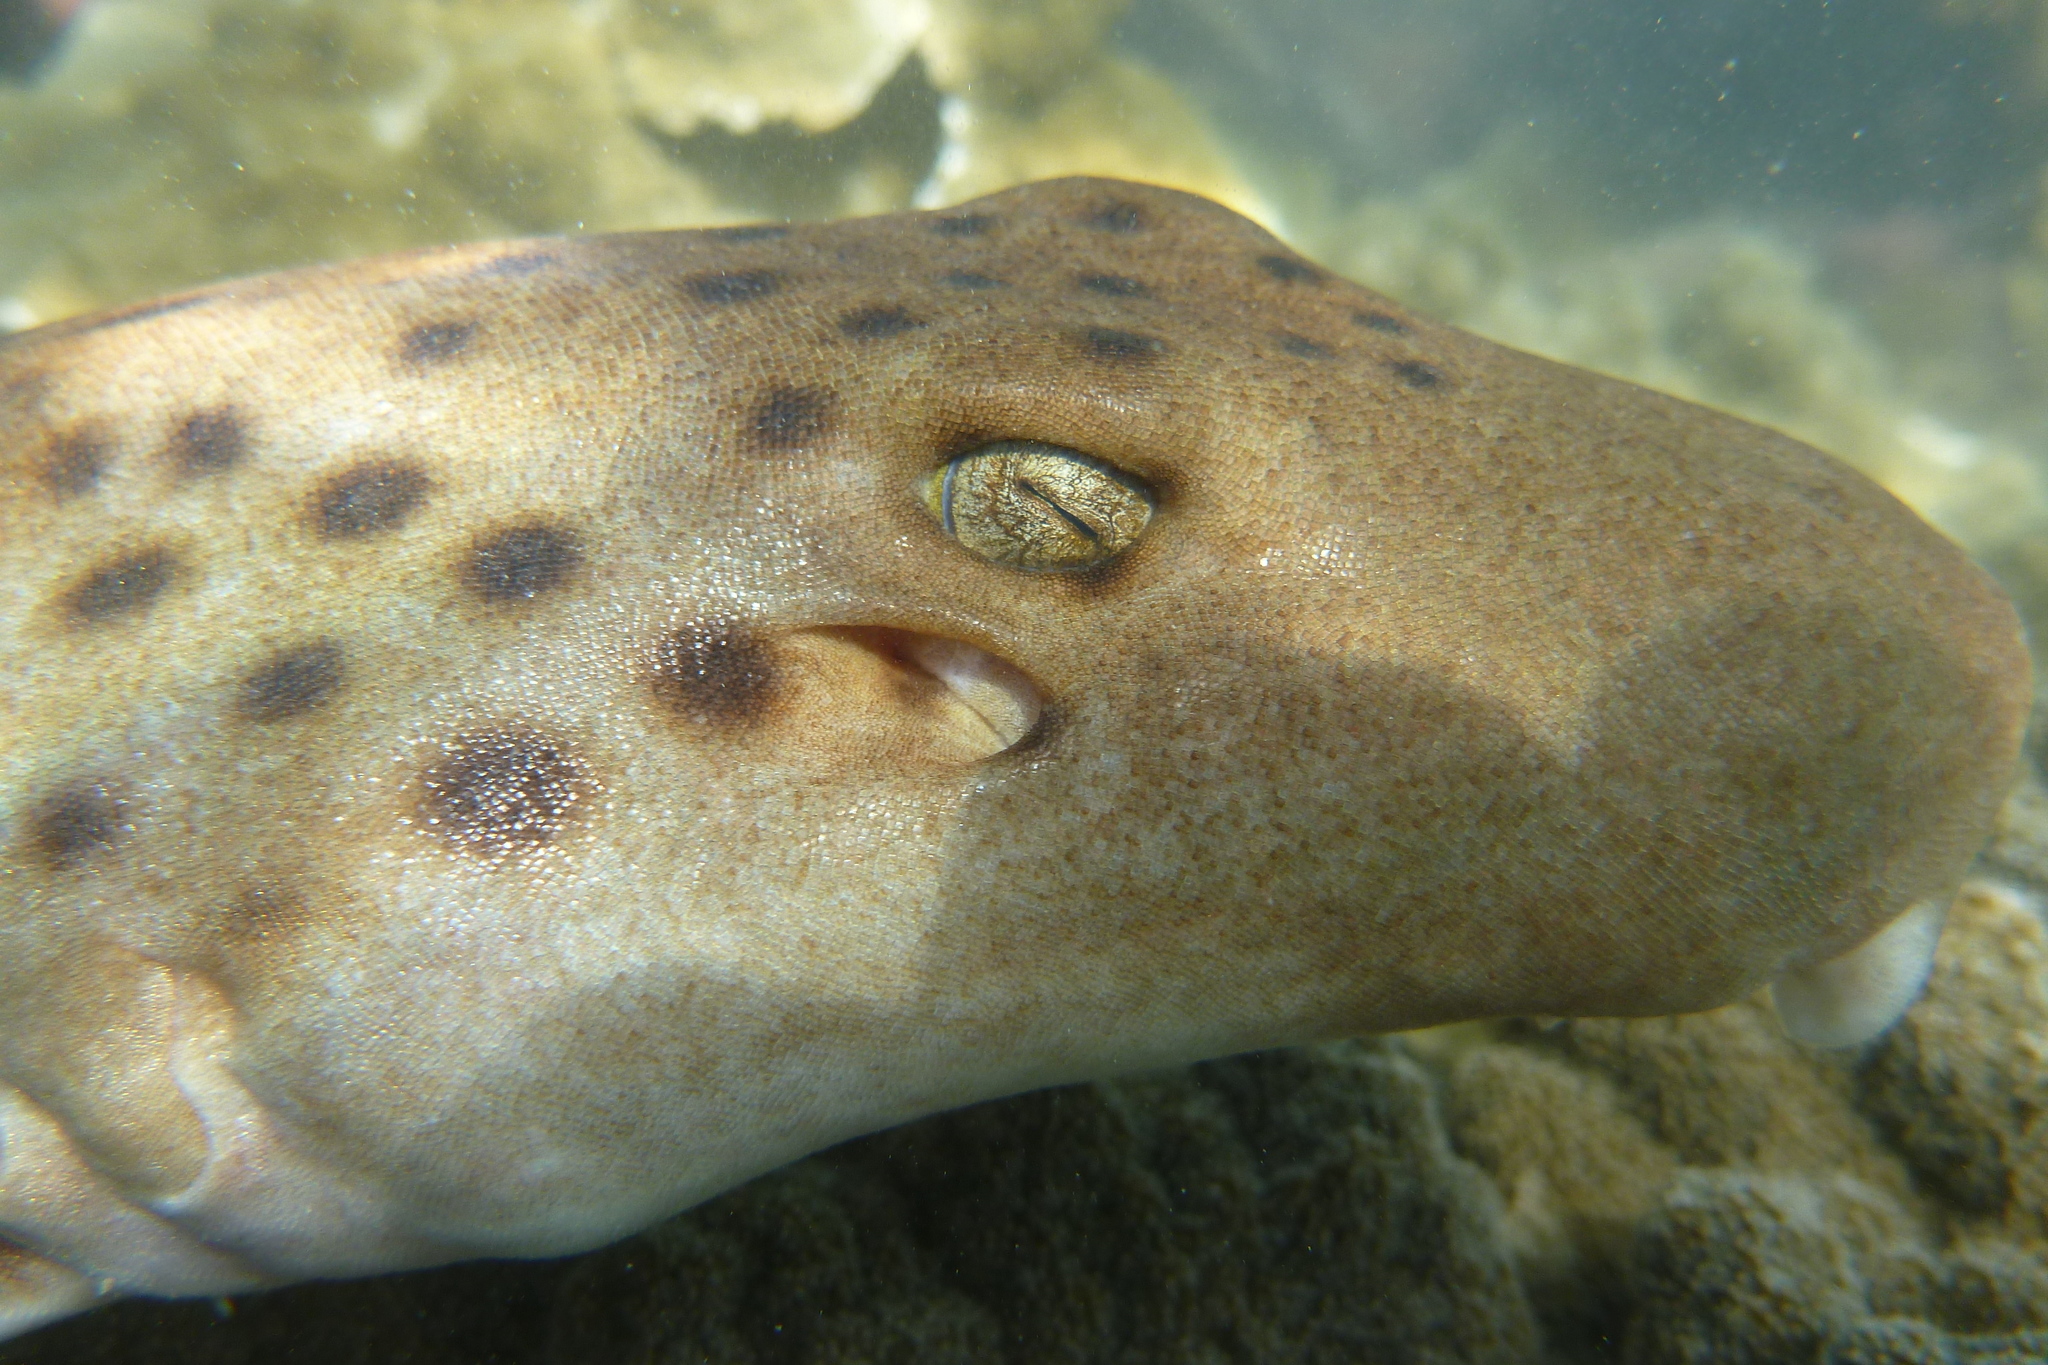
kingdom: Animalia
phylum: Chordata
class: Elasmobranchii
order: Orectolobiformes
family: Hemiscylliidae
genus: Hemiscyllium
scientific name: Hemiscyllium ocellatum
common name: Epaulette shark
